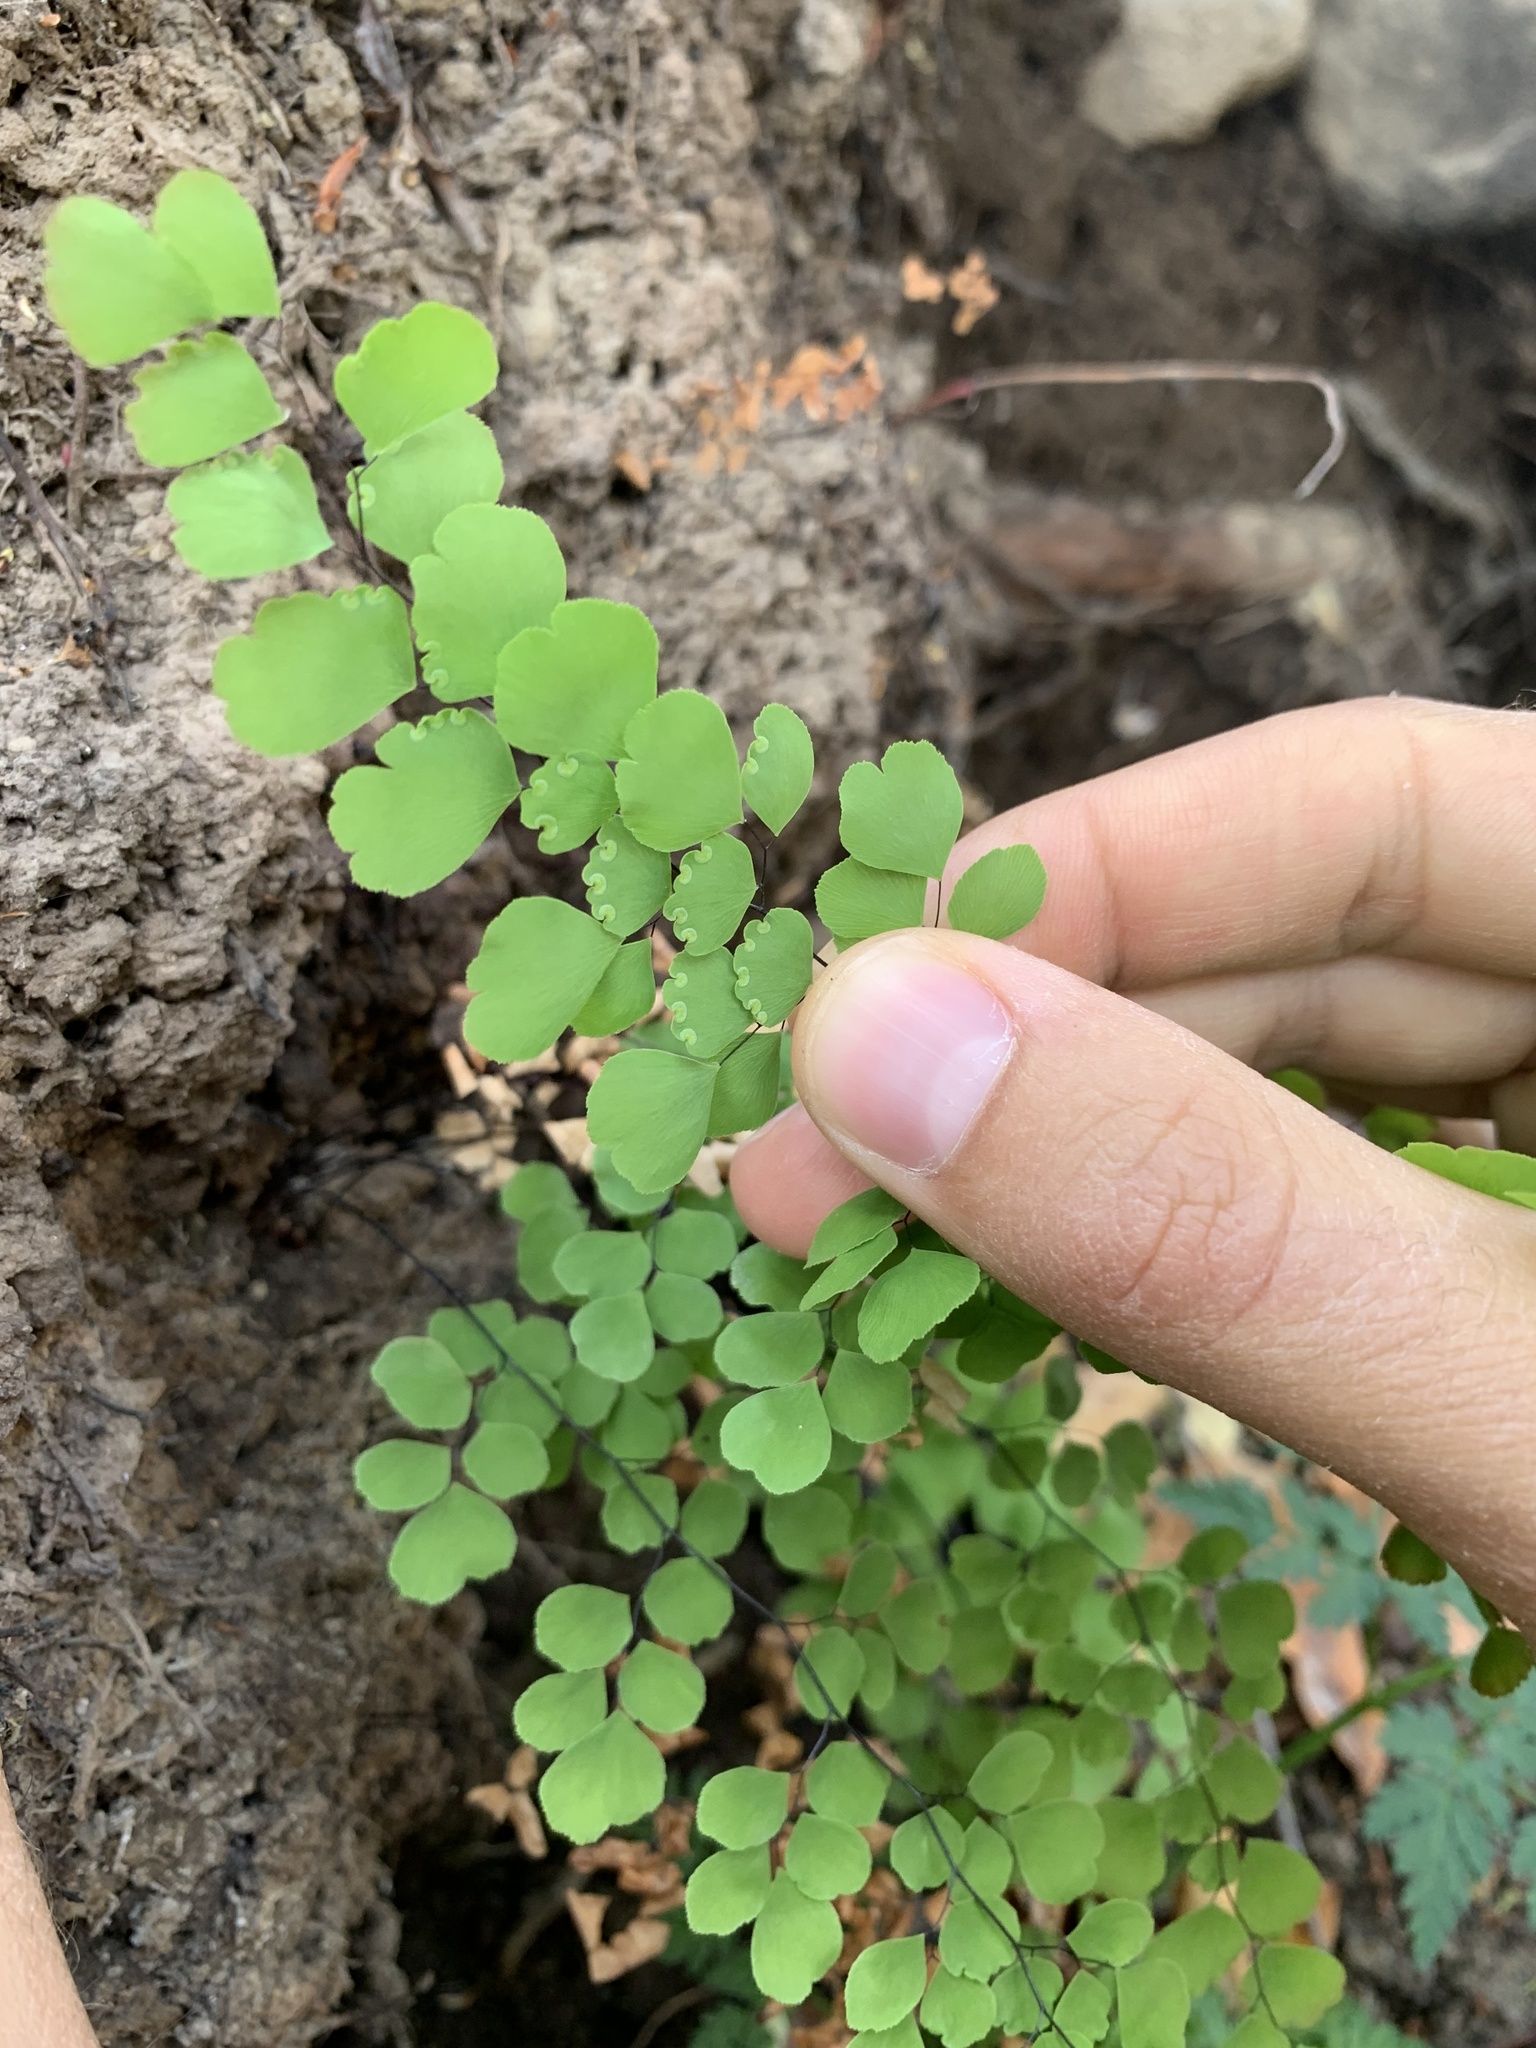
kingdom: Plantae
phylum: Tracheophyta
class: Polypodiopsida
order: Polypodiales
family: Pteridaceae
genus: Adiantum
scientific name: Adiantum orbignyanum
